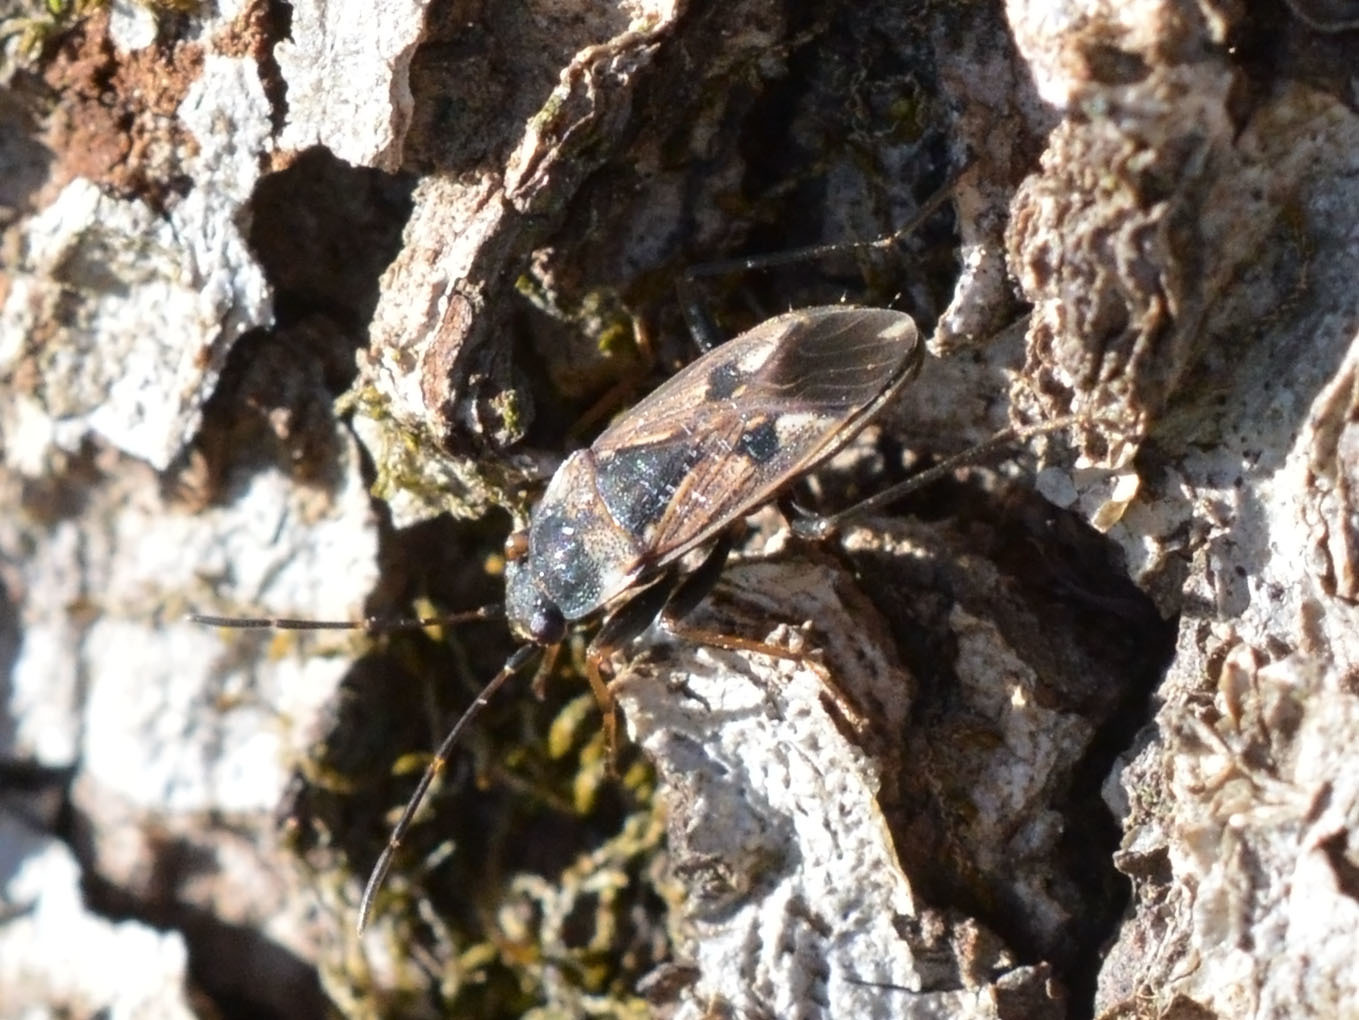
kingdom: Animalia
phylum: Arthropoda
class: Insecta
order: Hemiptera
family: Rhyparochromidae
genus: Rhyparochromus
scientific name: Rhyparochromus vulgaris
